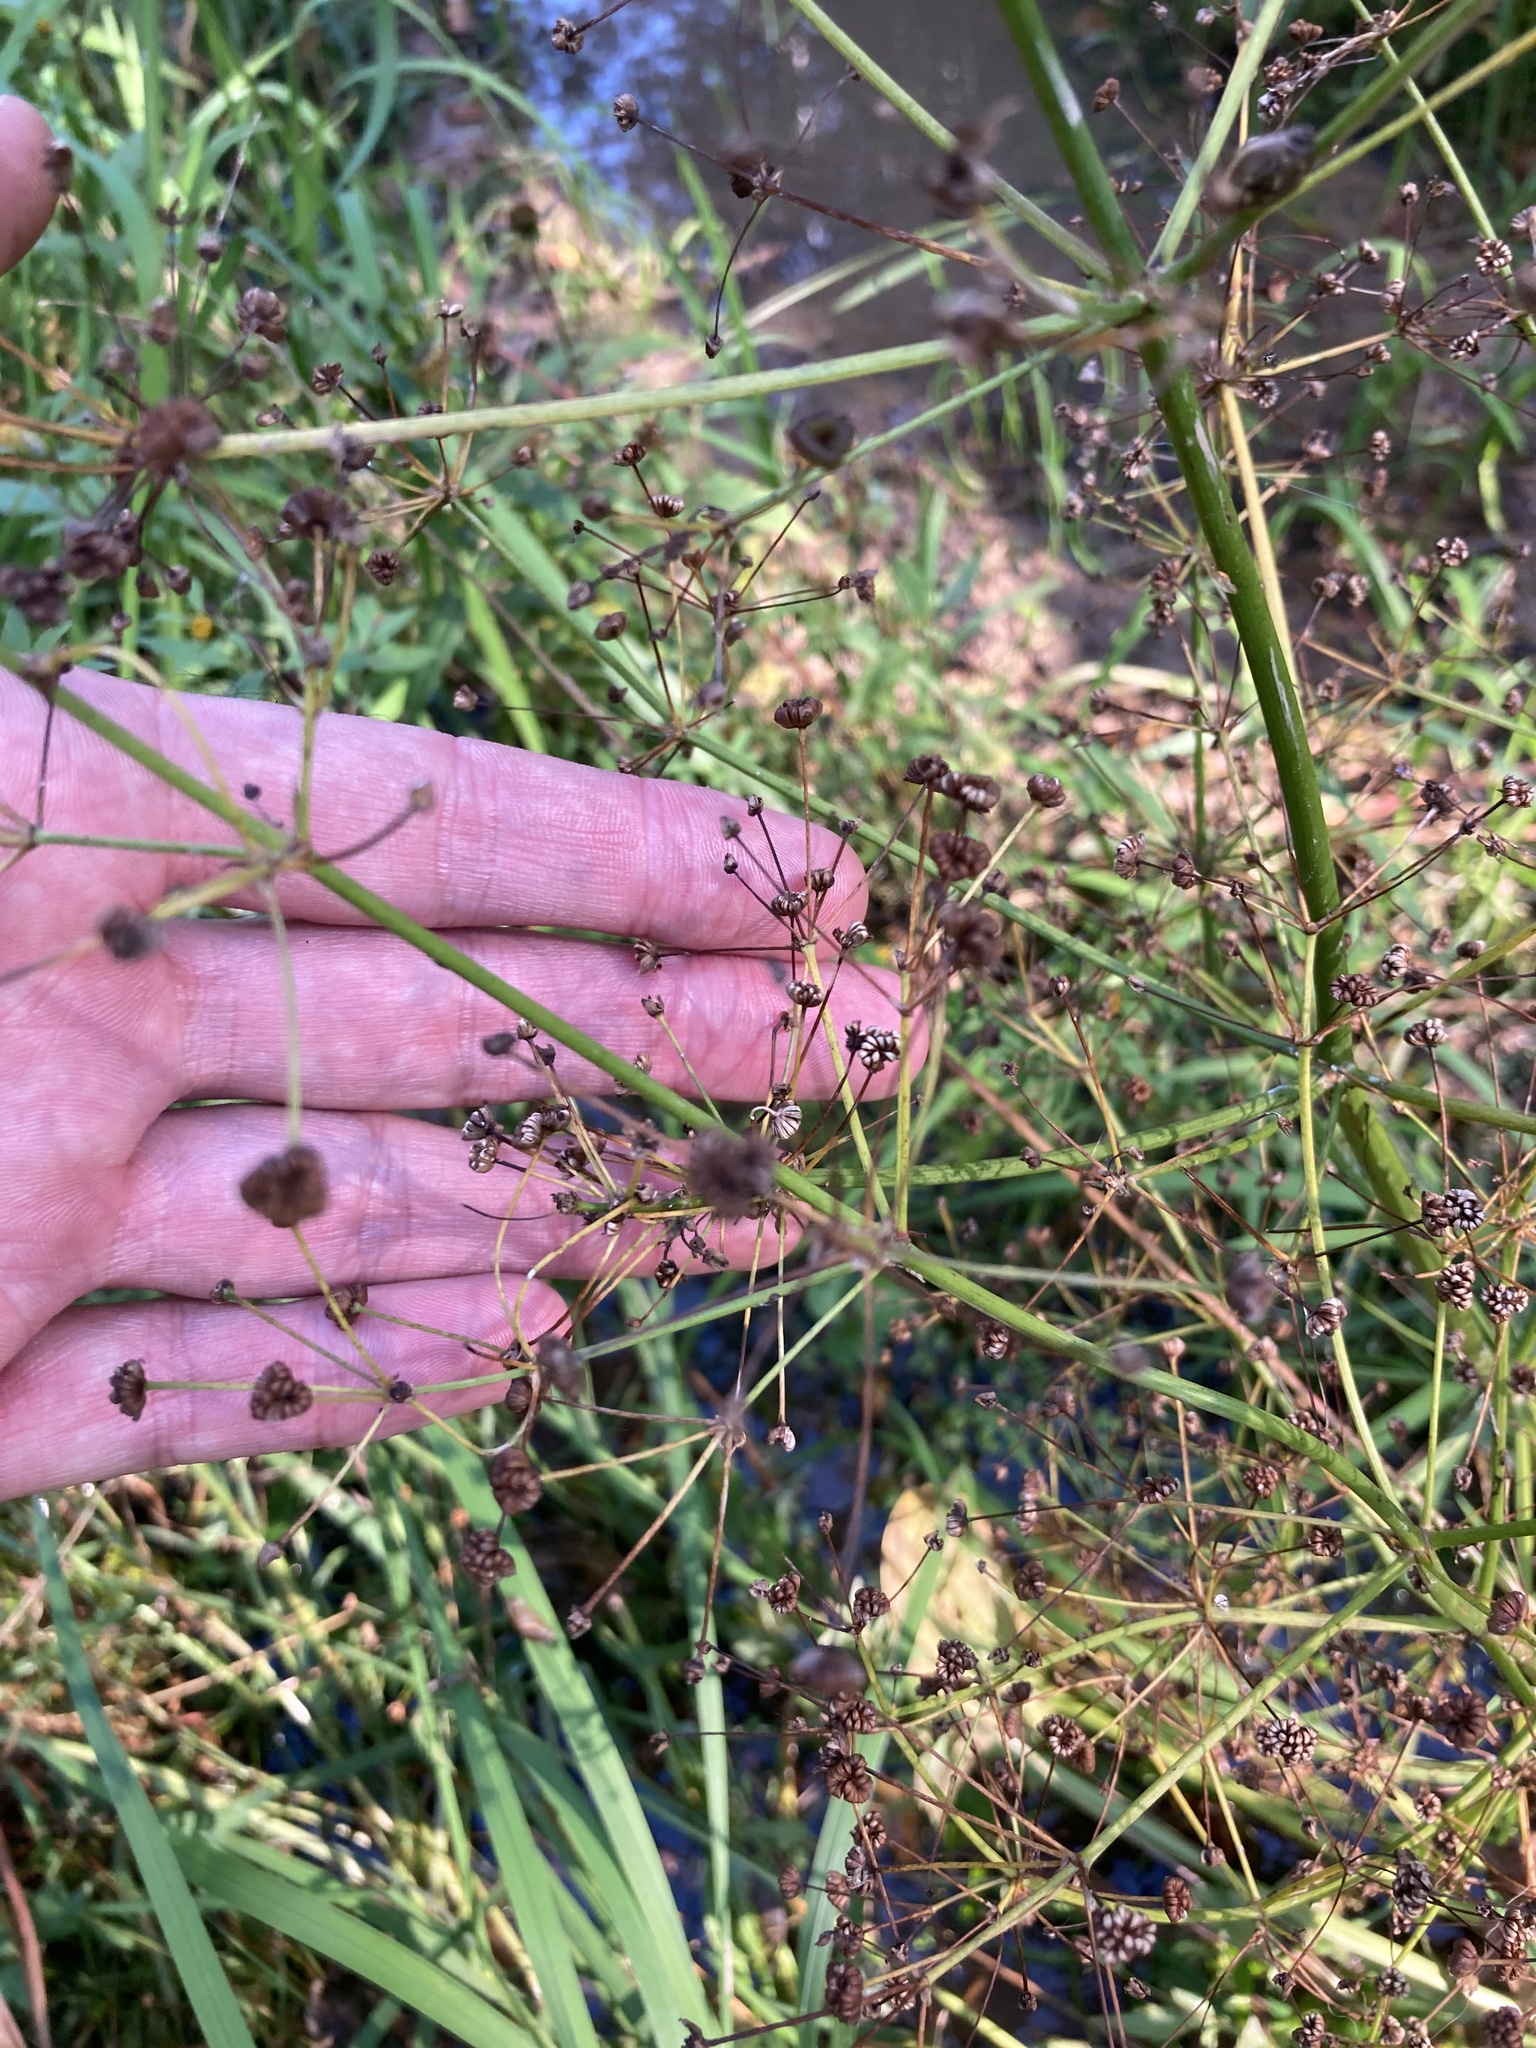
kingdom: Plantae
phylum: Tracheophyta
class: Liliopsida
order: Alismatales
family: Alismataceae
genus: Alisma
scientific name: Alisma plantago-aquatica
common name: Water-plantain
